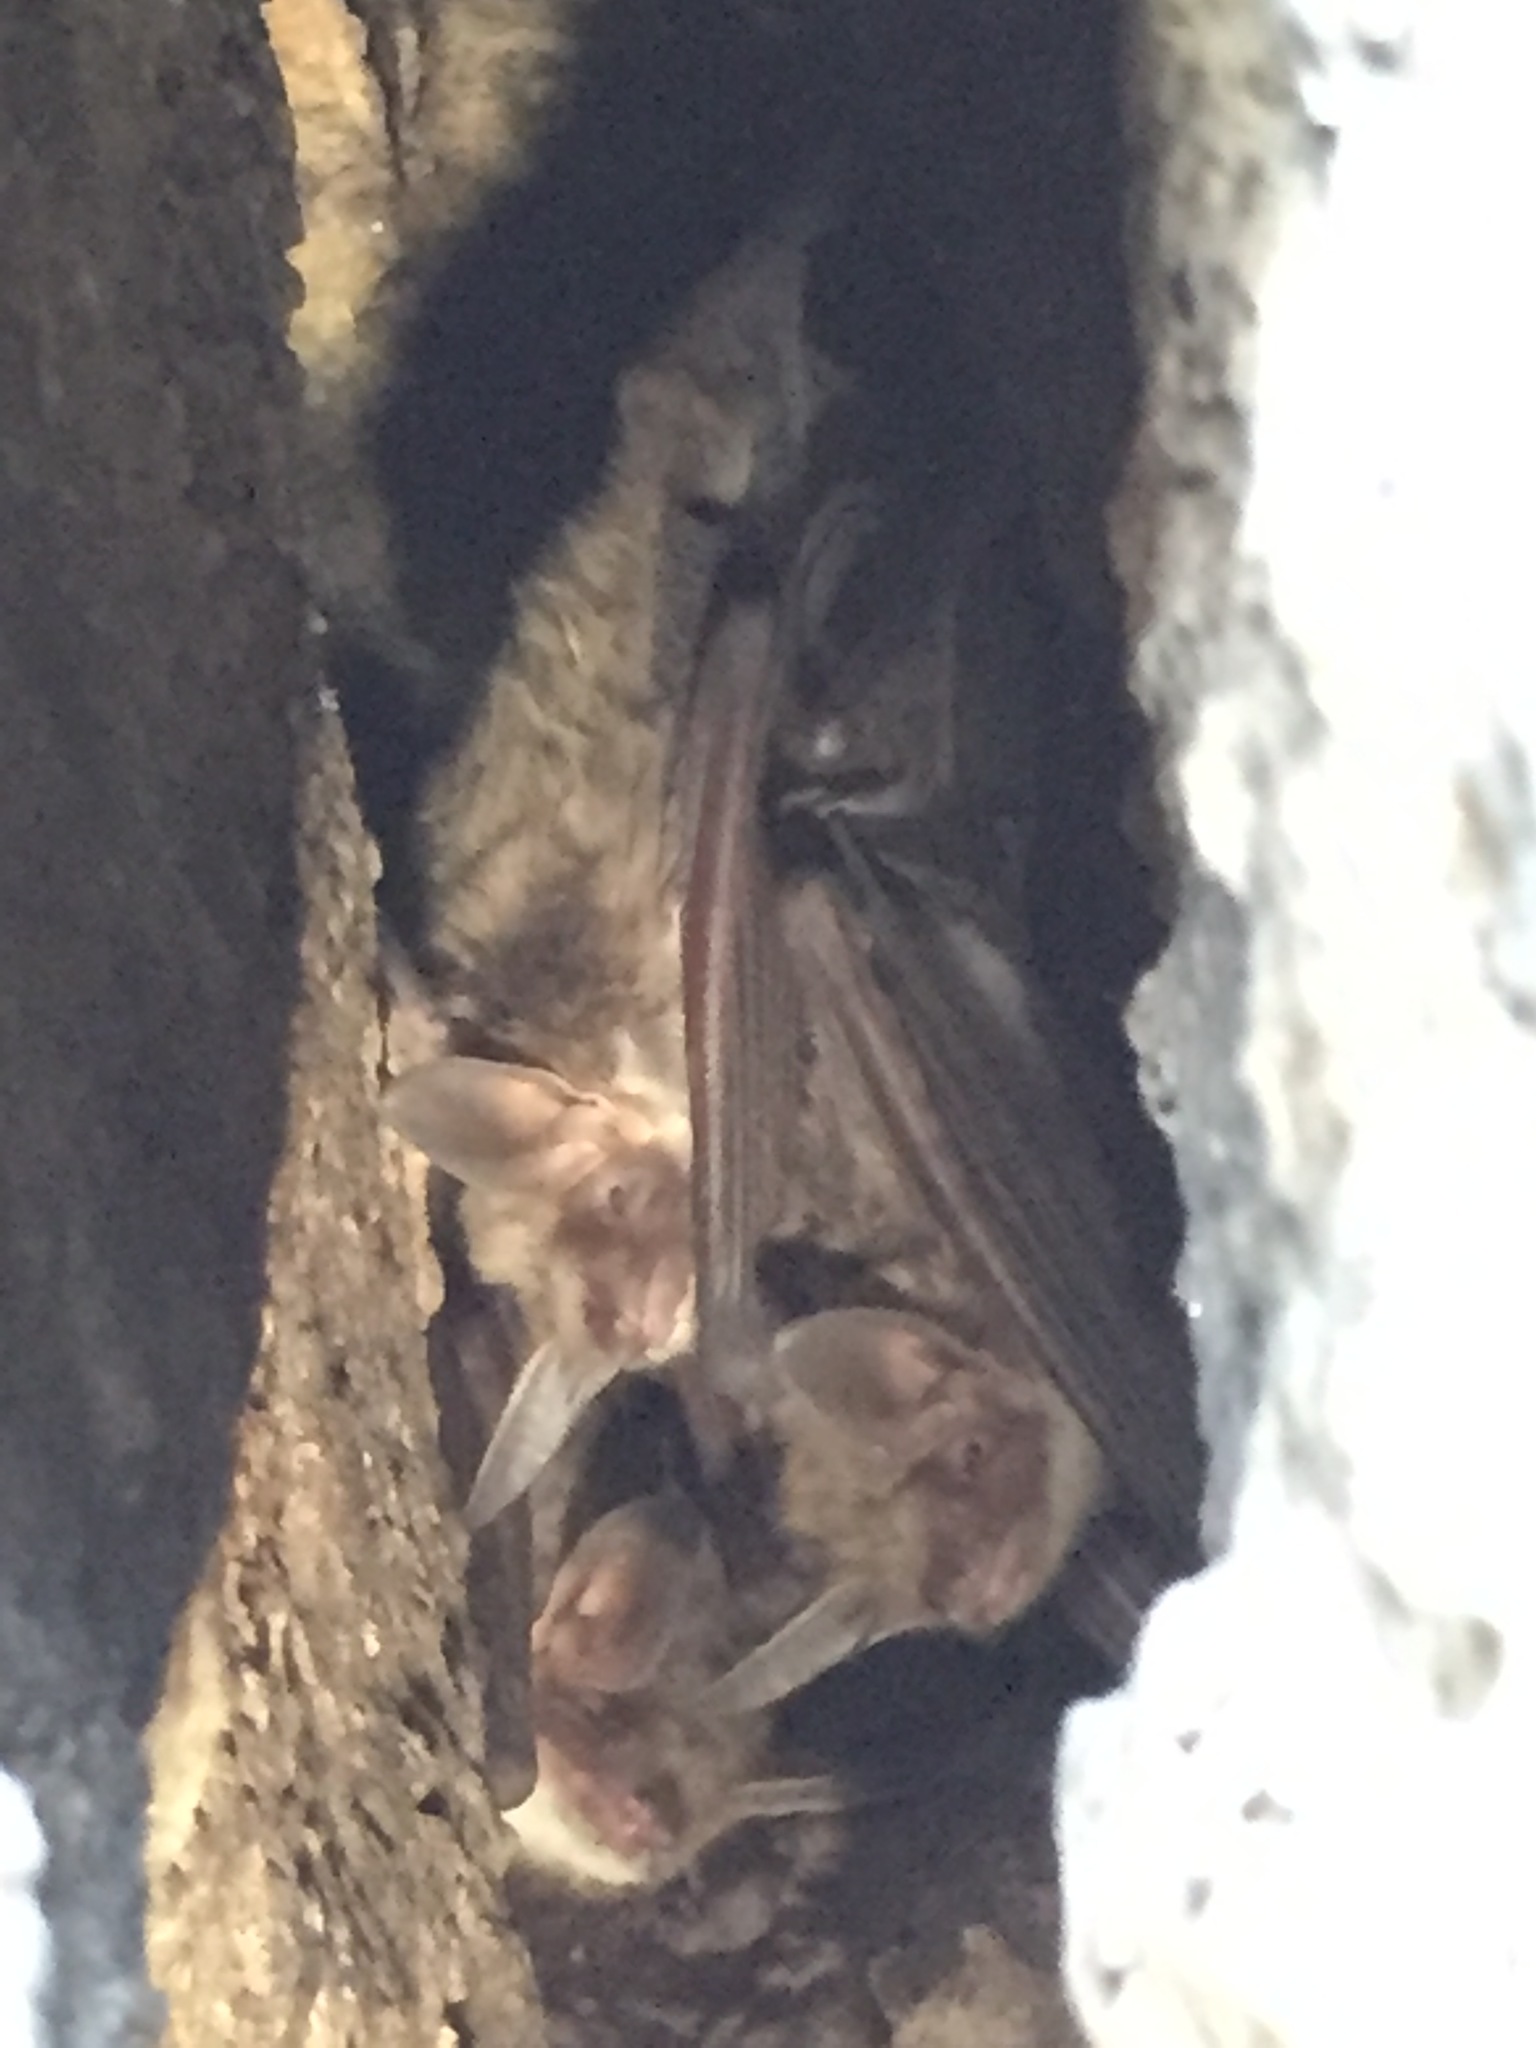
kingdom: Animalia
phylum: Chordata
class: Mammalia
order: Chiroptera
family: Vespertilionidae
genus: Myotis
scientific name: Myotis vivesi
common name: Fish-eating myotis
